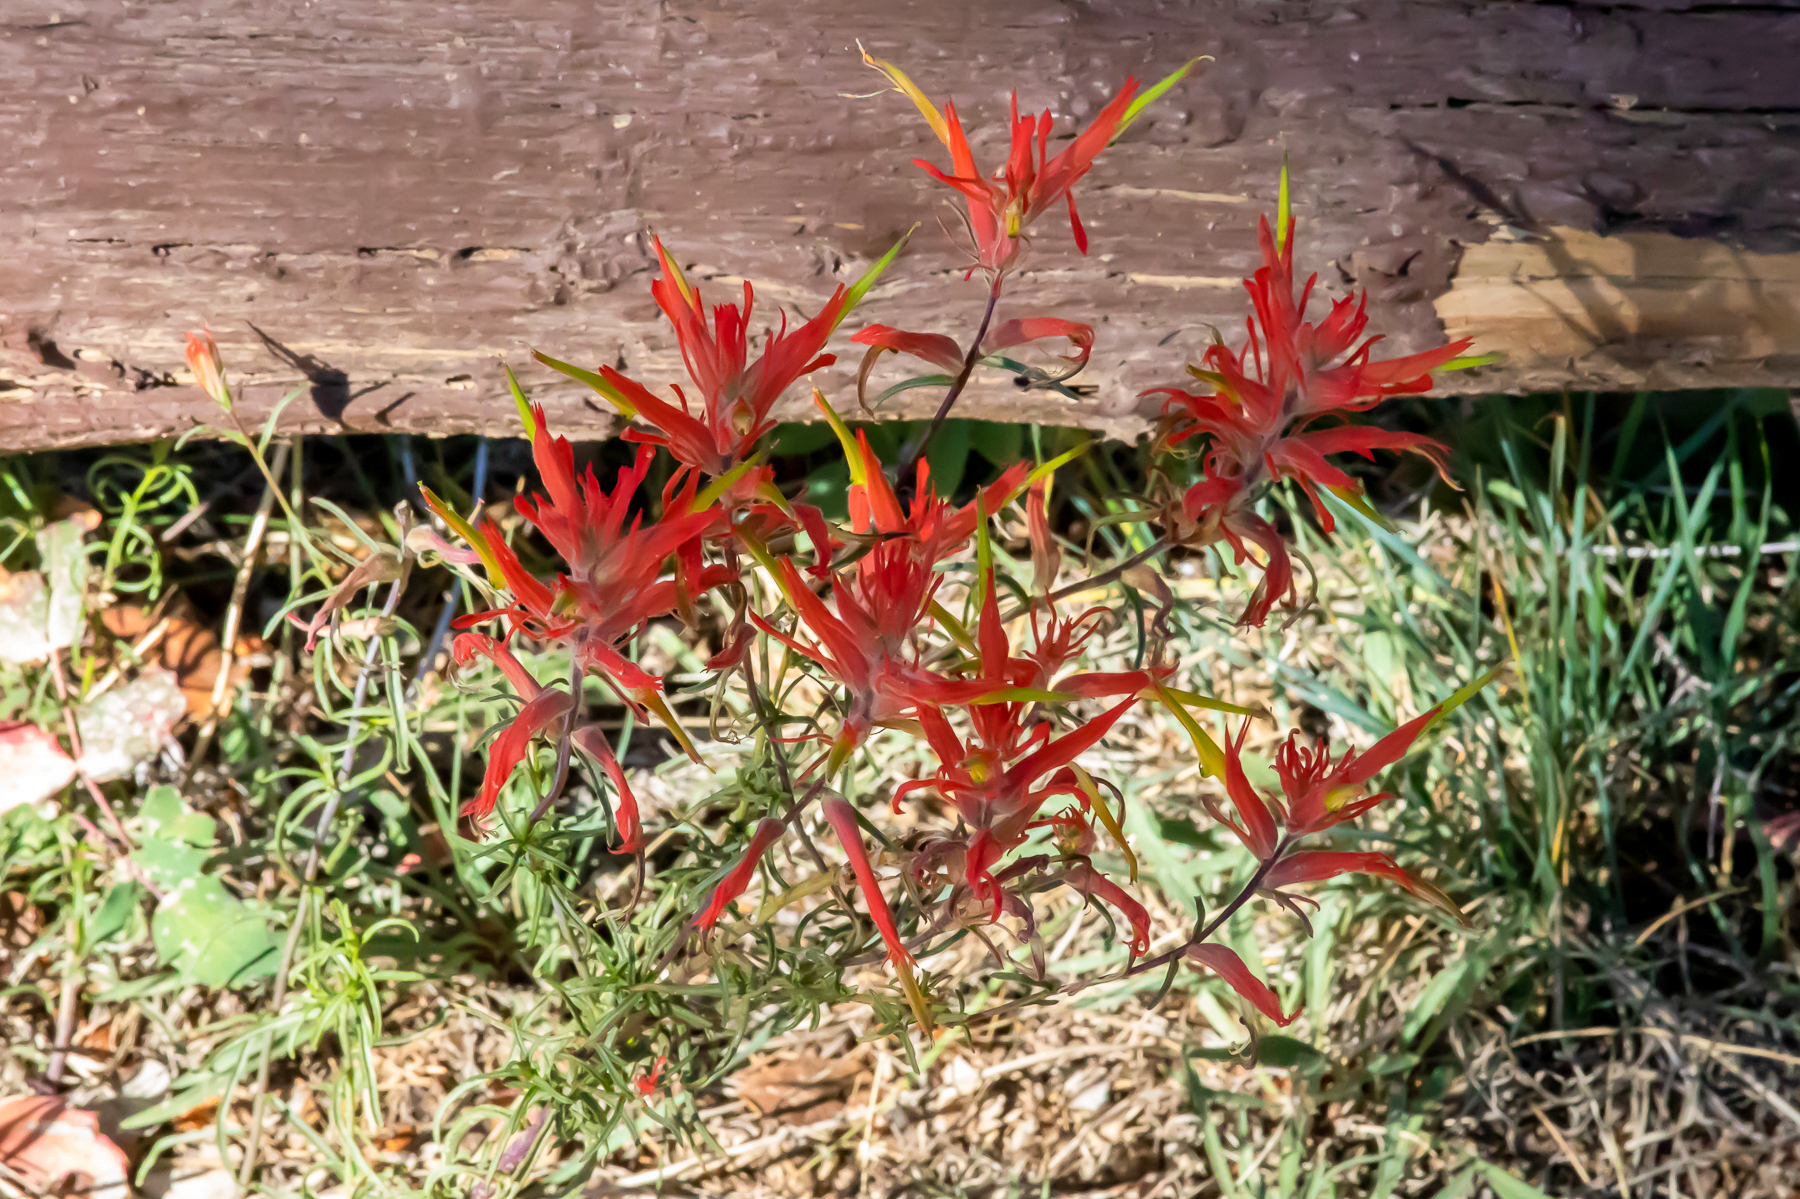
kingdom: Plantae
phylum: Tracheophyta
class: Magnoliopsida
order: Lamiales
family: Orobanchaceae
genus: Castilleja
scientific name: Castilleja linariifolia
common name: Wyoming paintbrush
